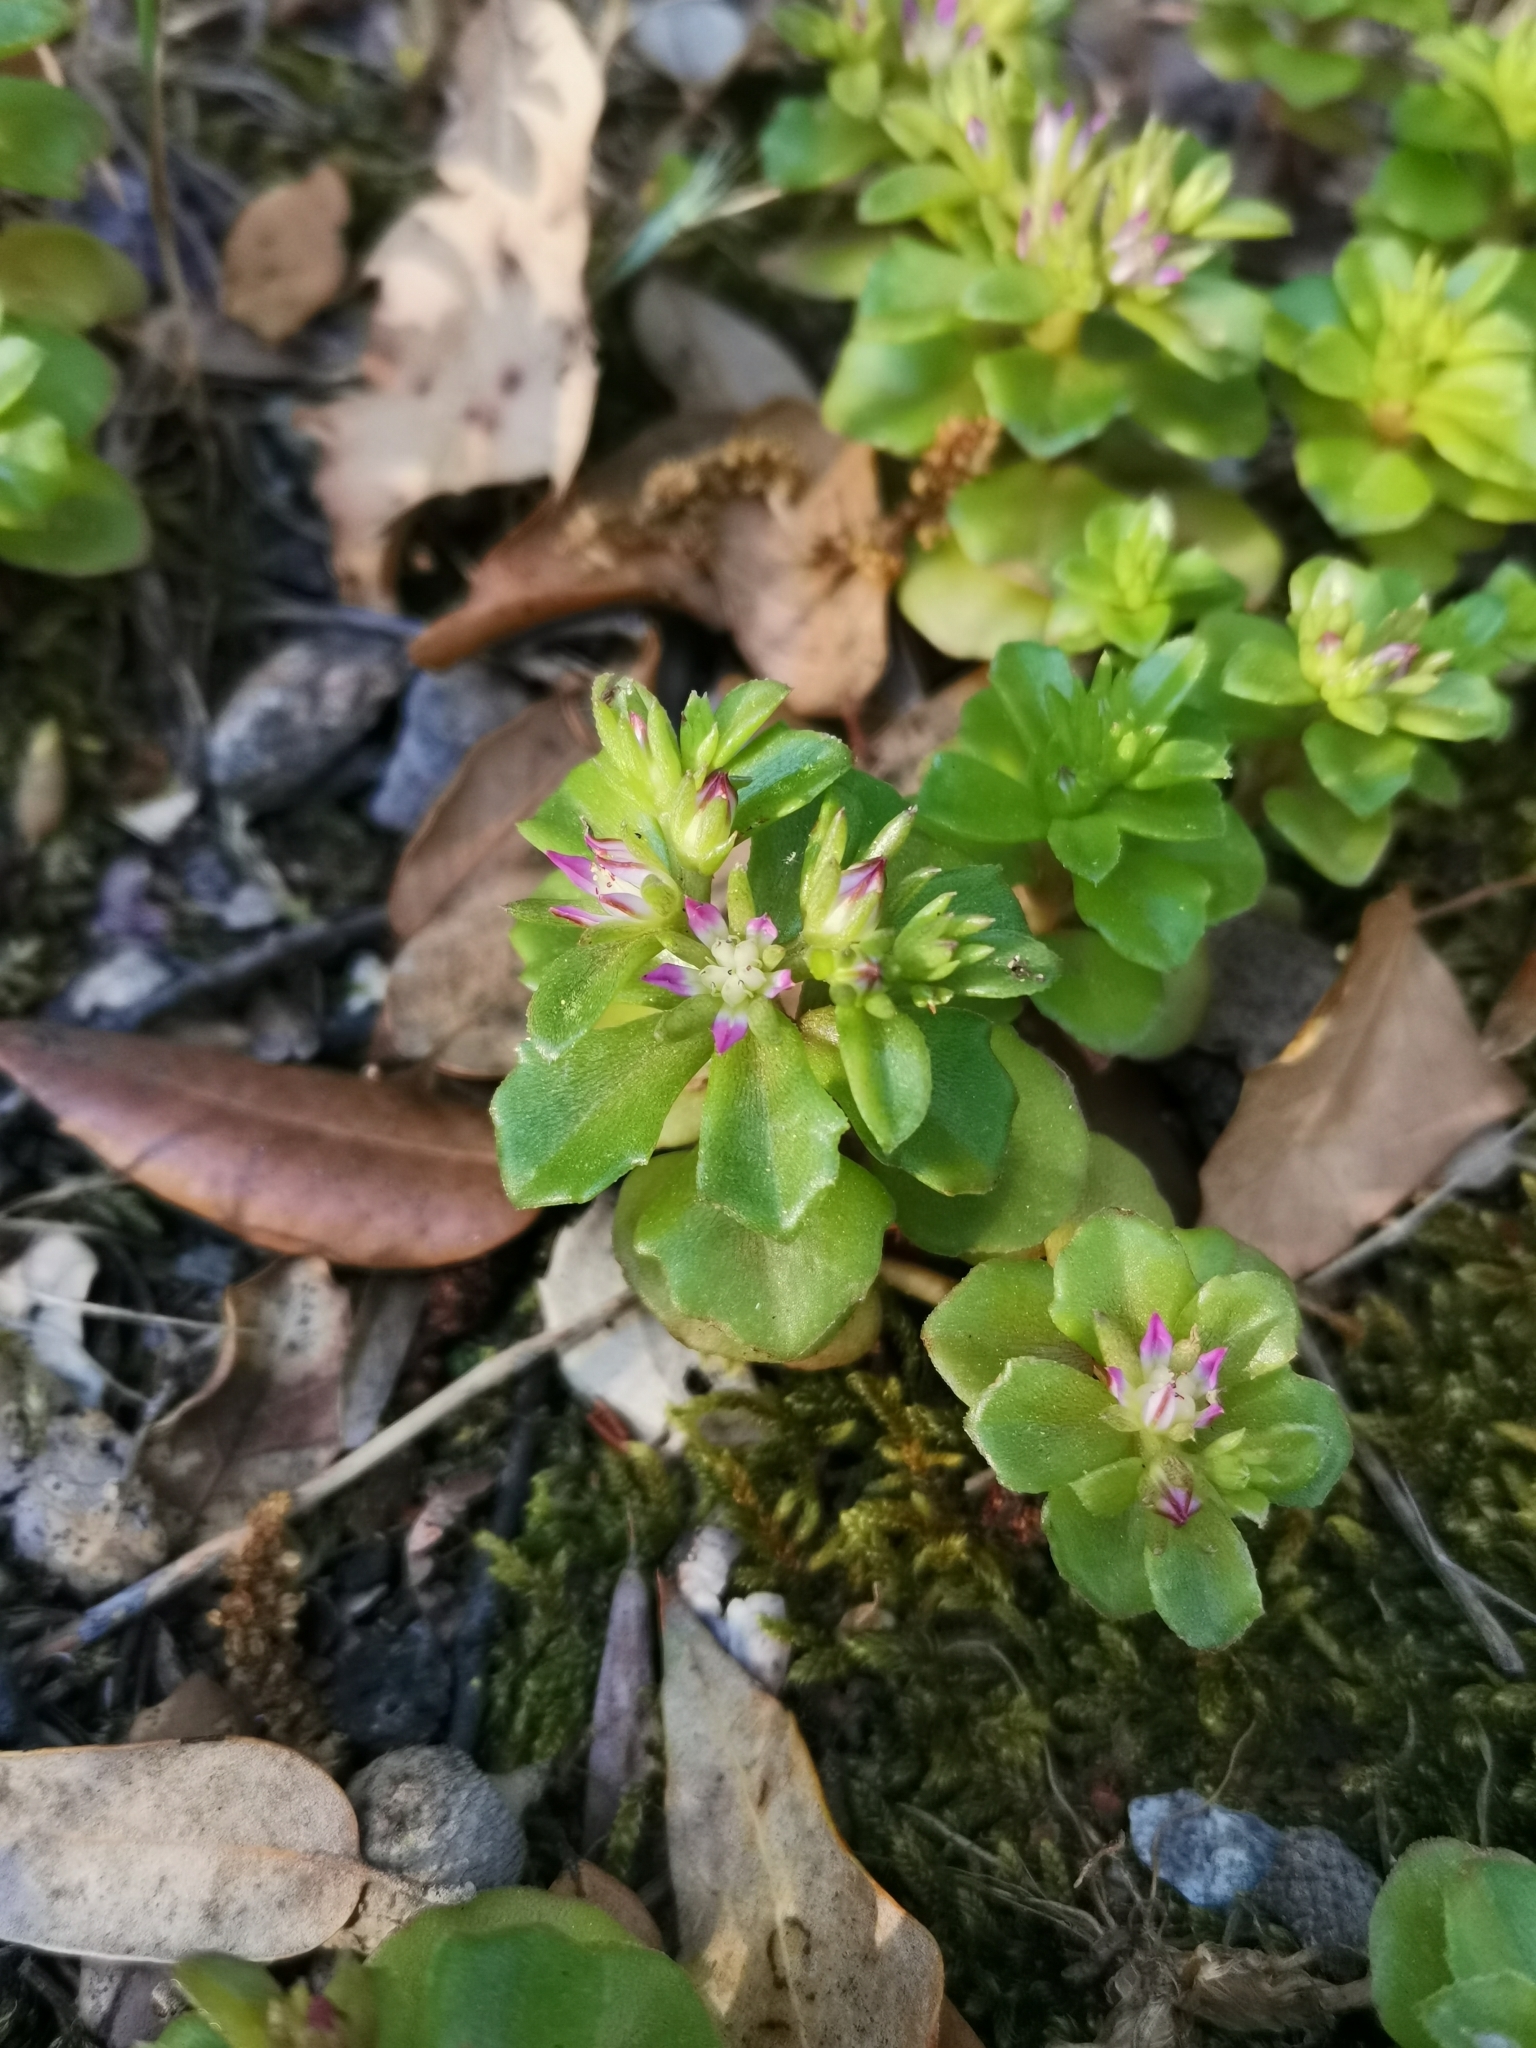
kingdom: Plantae
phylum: Tracheophyta
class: Magnoliopsida
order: Saxifragales
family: Crassulaceae
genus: Phedimus
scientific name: Phedimus stellatus
